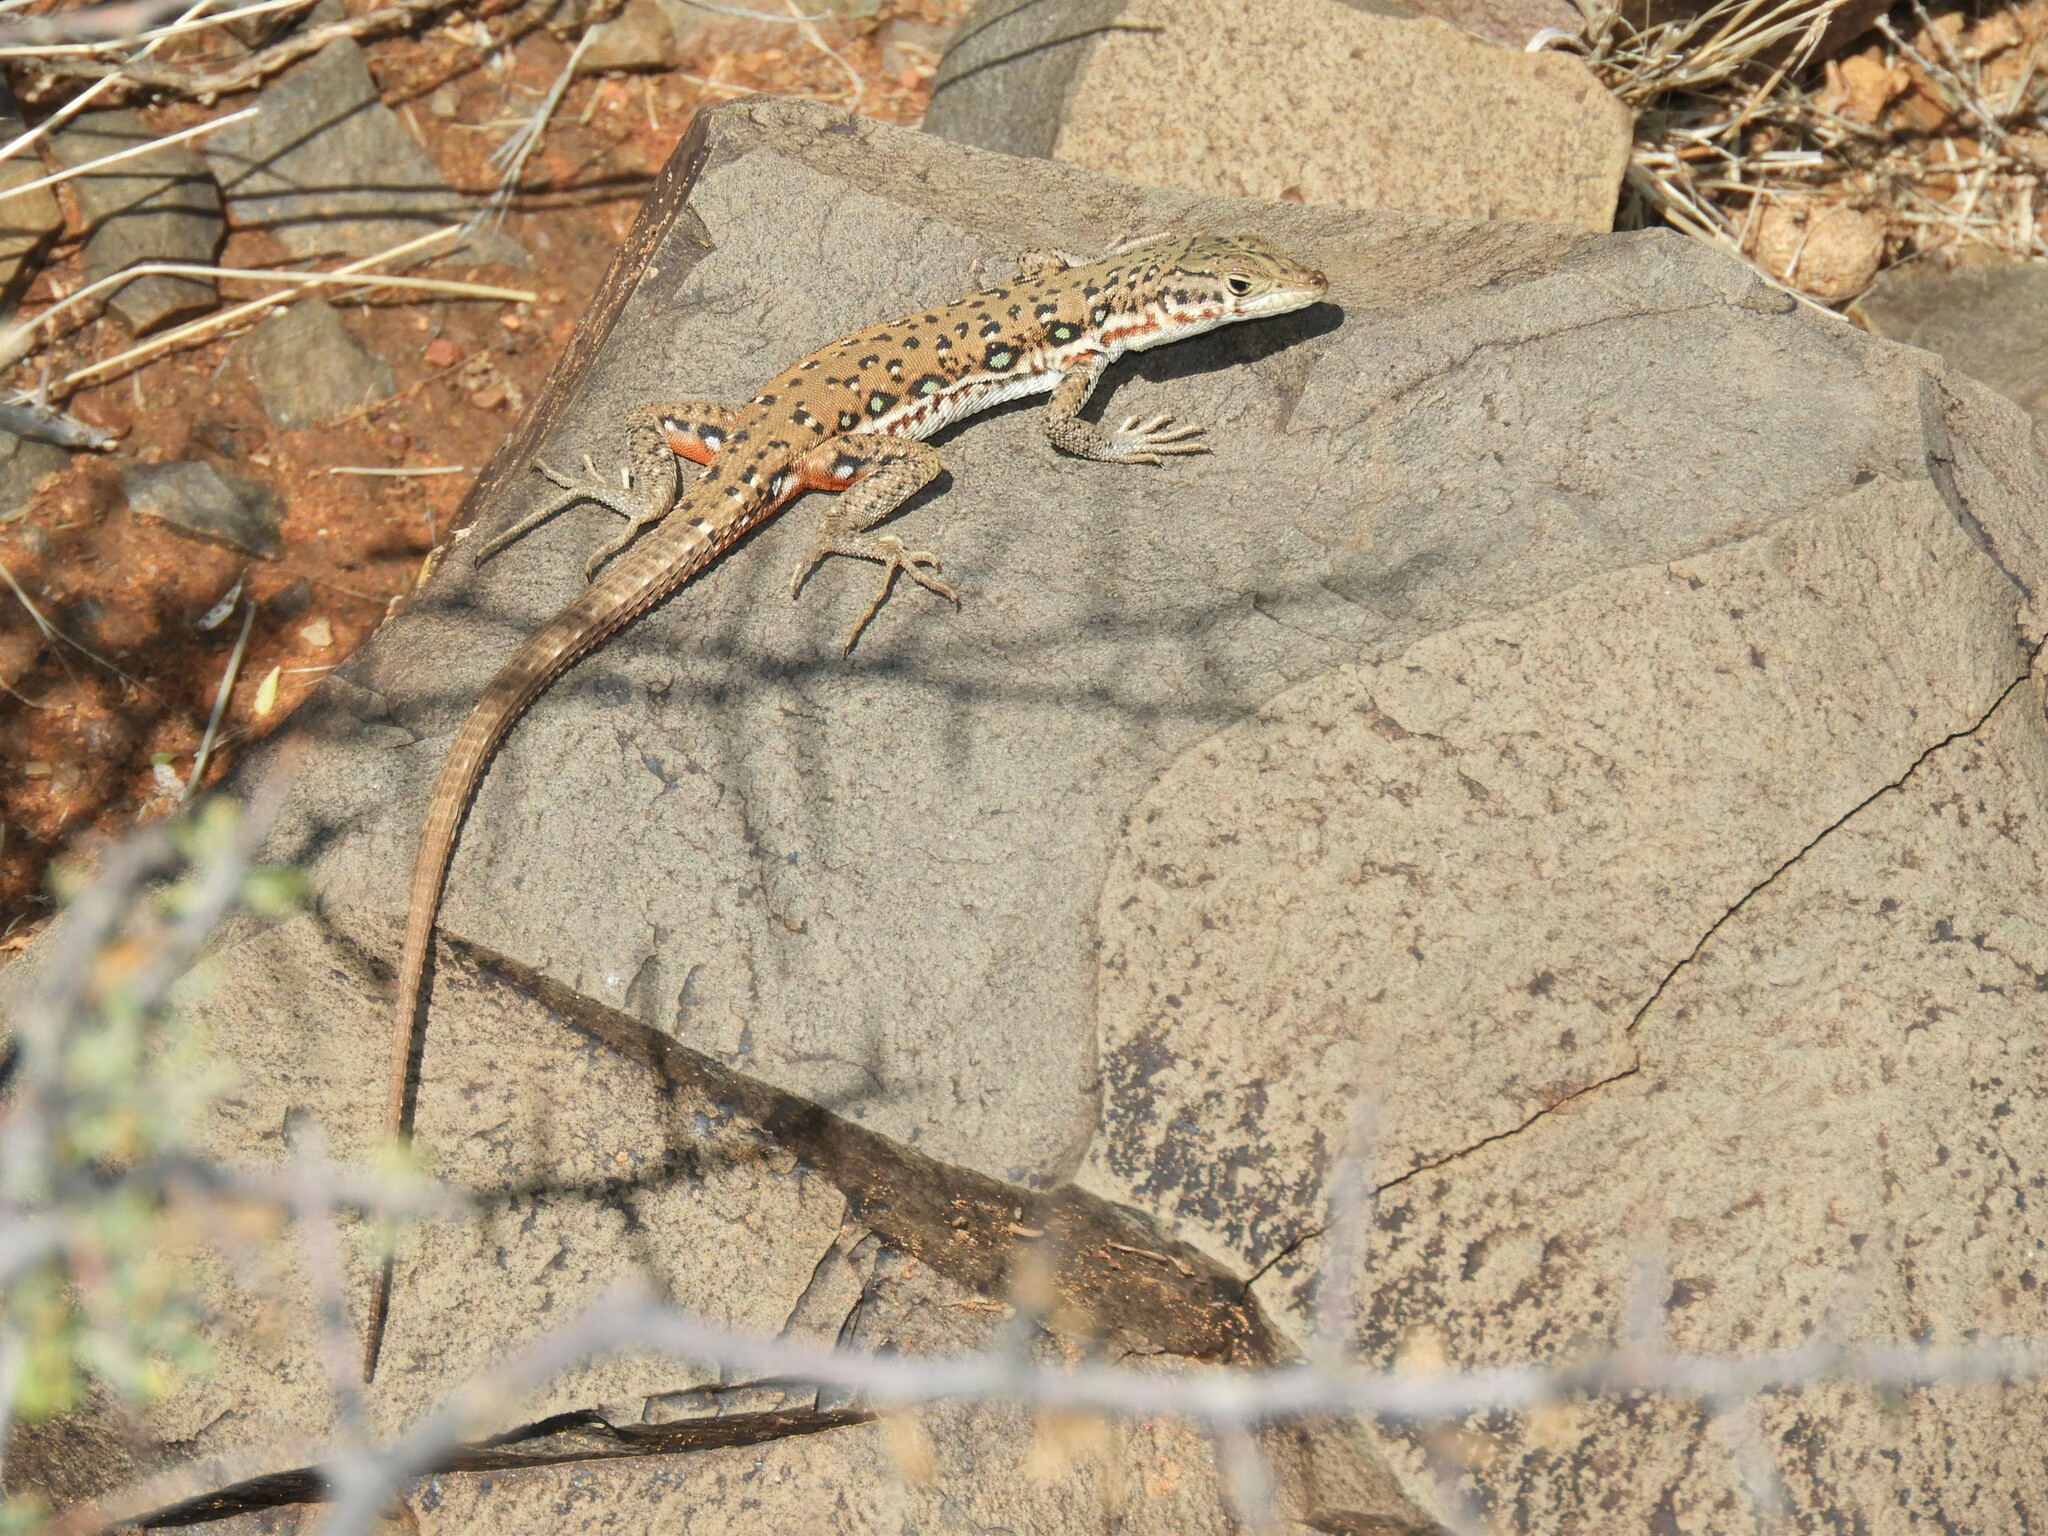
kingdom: Animalia
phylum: Chordata
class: Squamata
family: Lacertidae
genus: Pedioplanis
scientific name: Pedioplanis lineoocellata
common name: Spotted sand lizard
